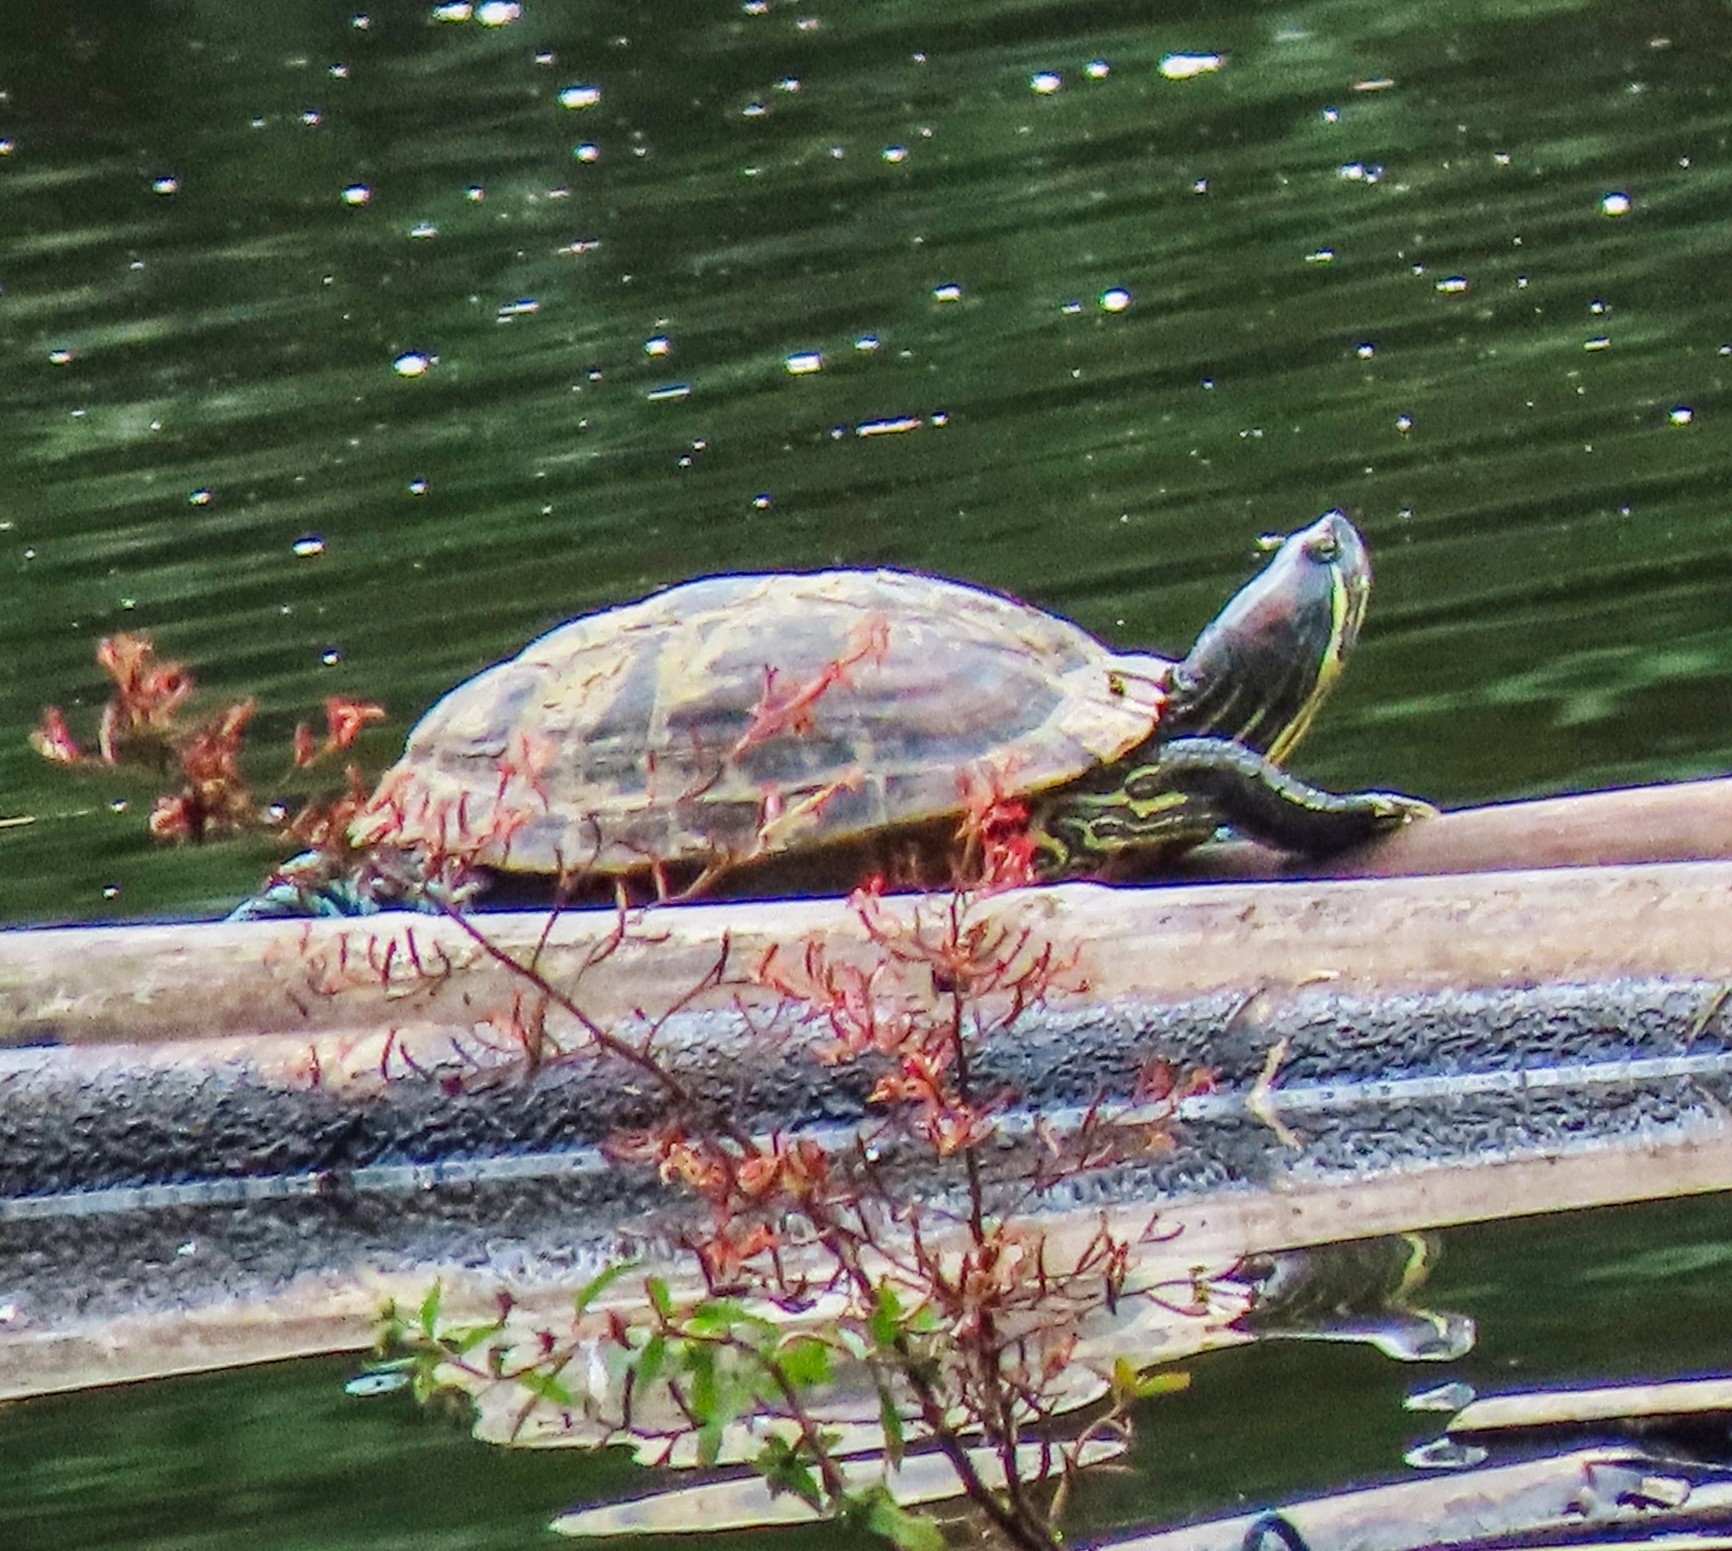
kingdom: Animalia
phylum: Chordata
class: Testudines
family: Emydidae
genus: Trachemys
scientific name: Trachemys scripta
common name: Slider
